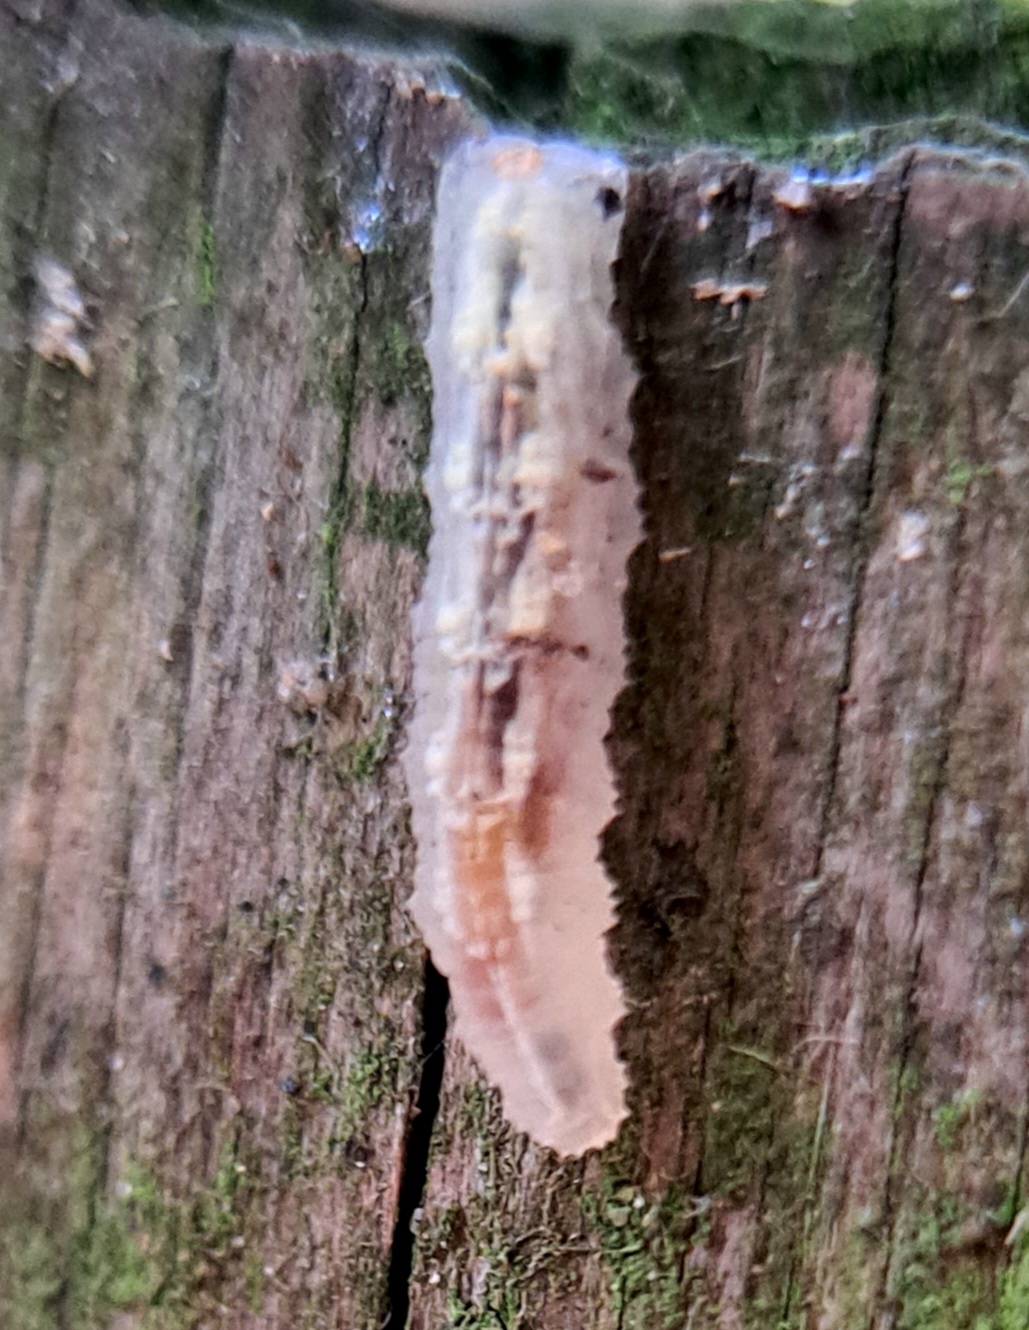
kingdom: Animalia
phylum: Arthropoda
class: Insecta
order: Diptera
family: Syrphidae
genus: Syrphus
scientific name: Syrphus
